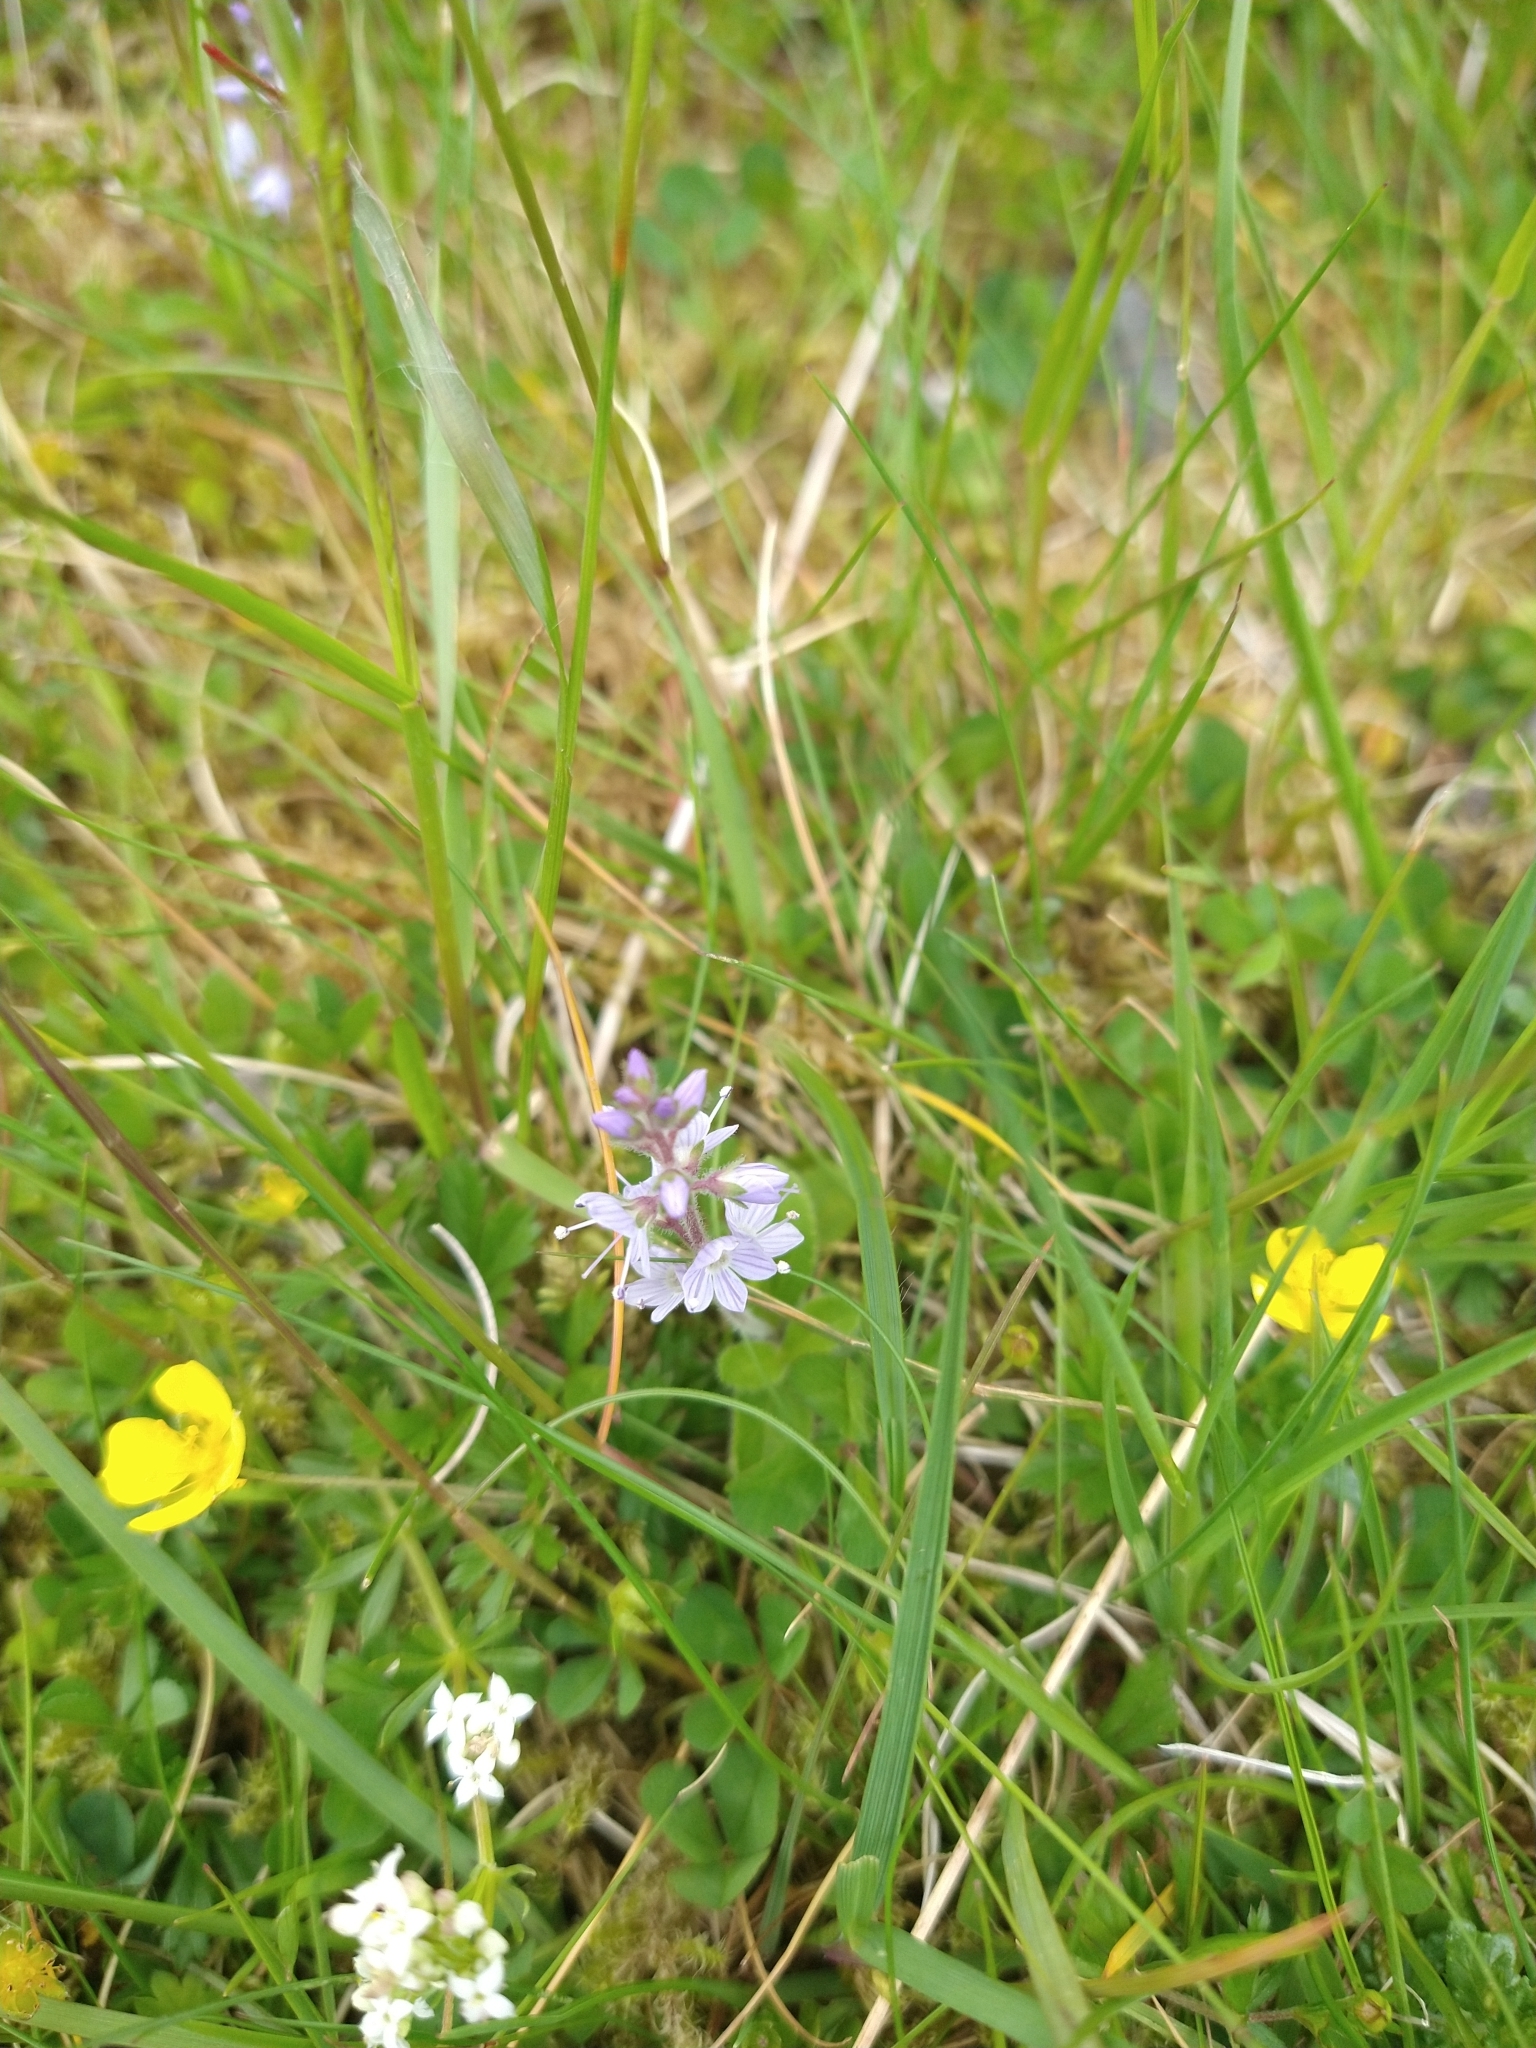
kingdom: Plantae
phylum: Tracheophyta
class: Magnoliopsida
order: Lamiales
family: Plantaginaceae
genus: Veronica
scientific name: Veronica officinalis
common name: Common speedwell
